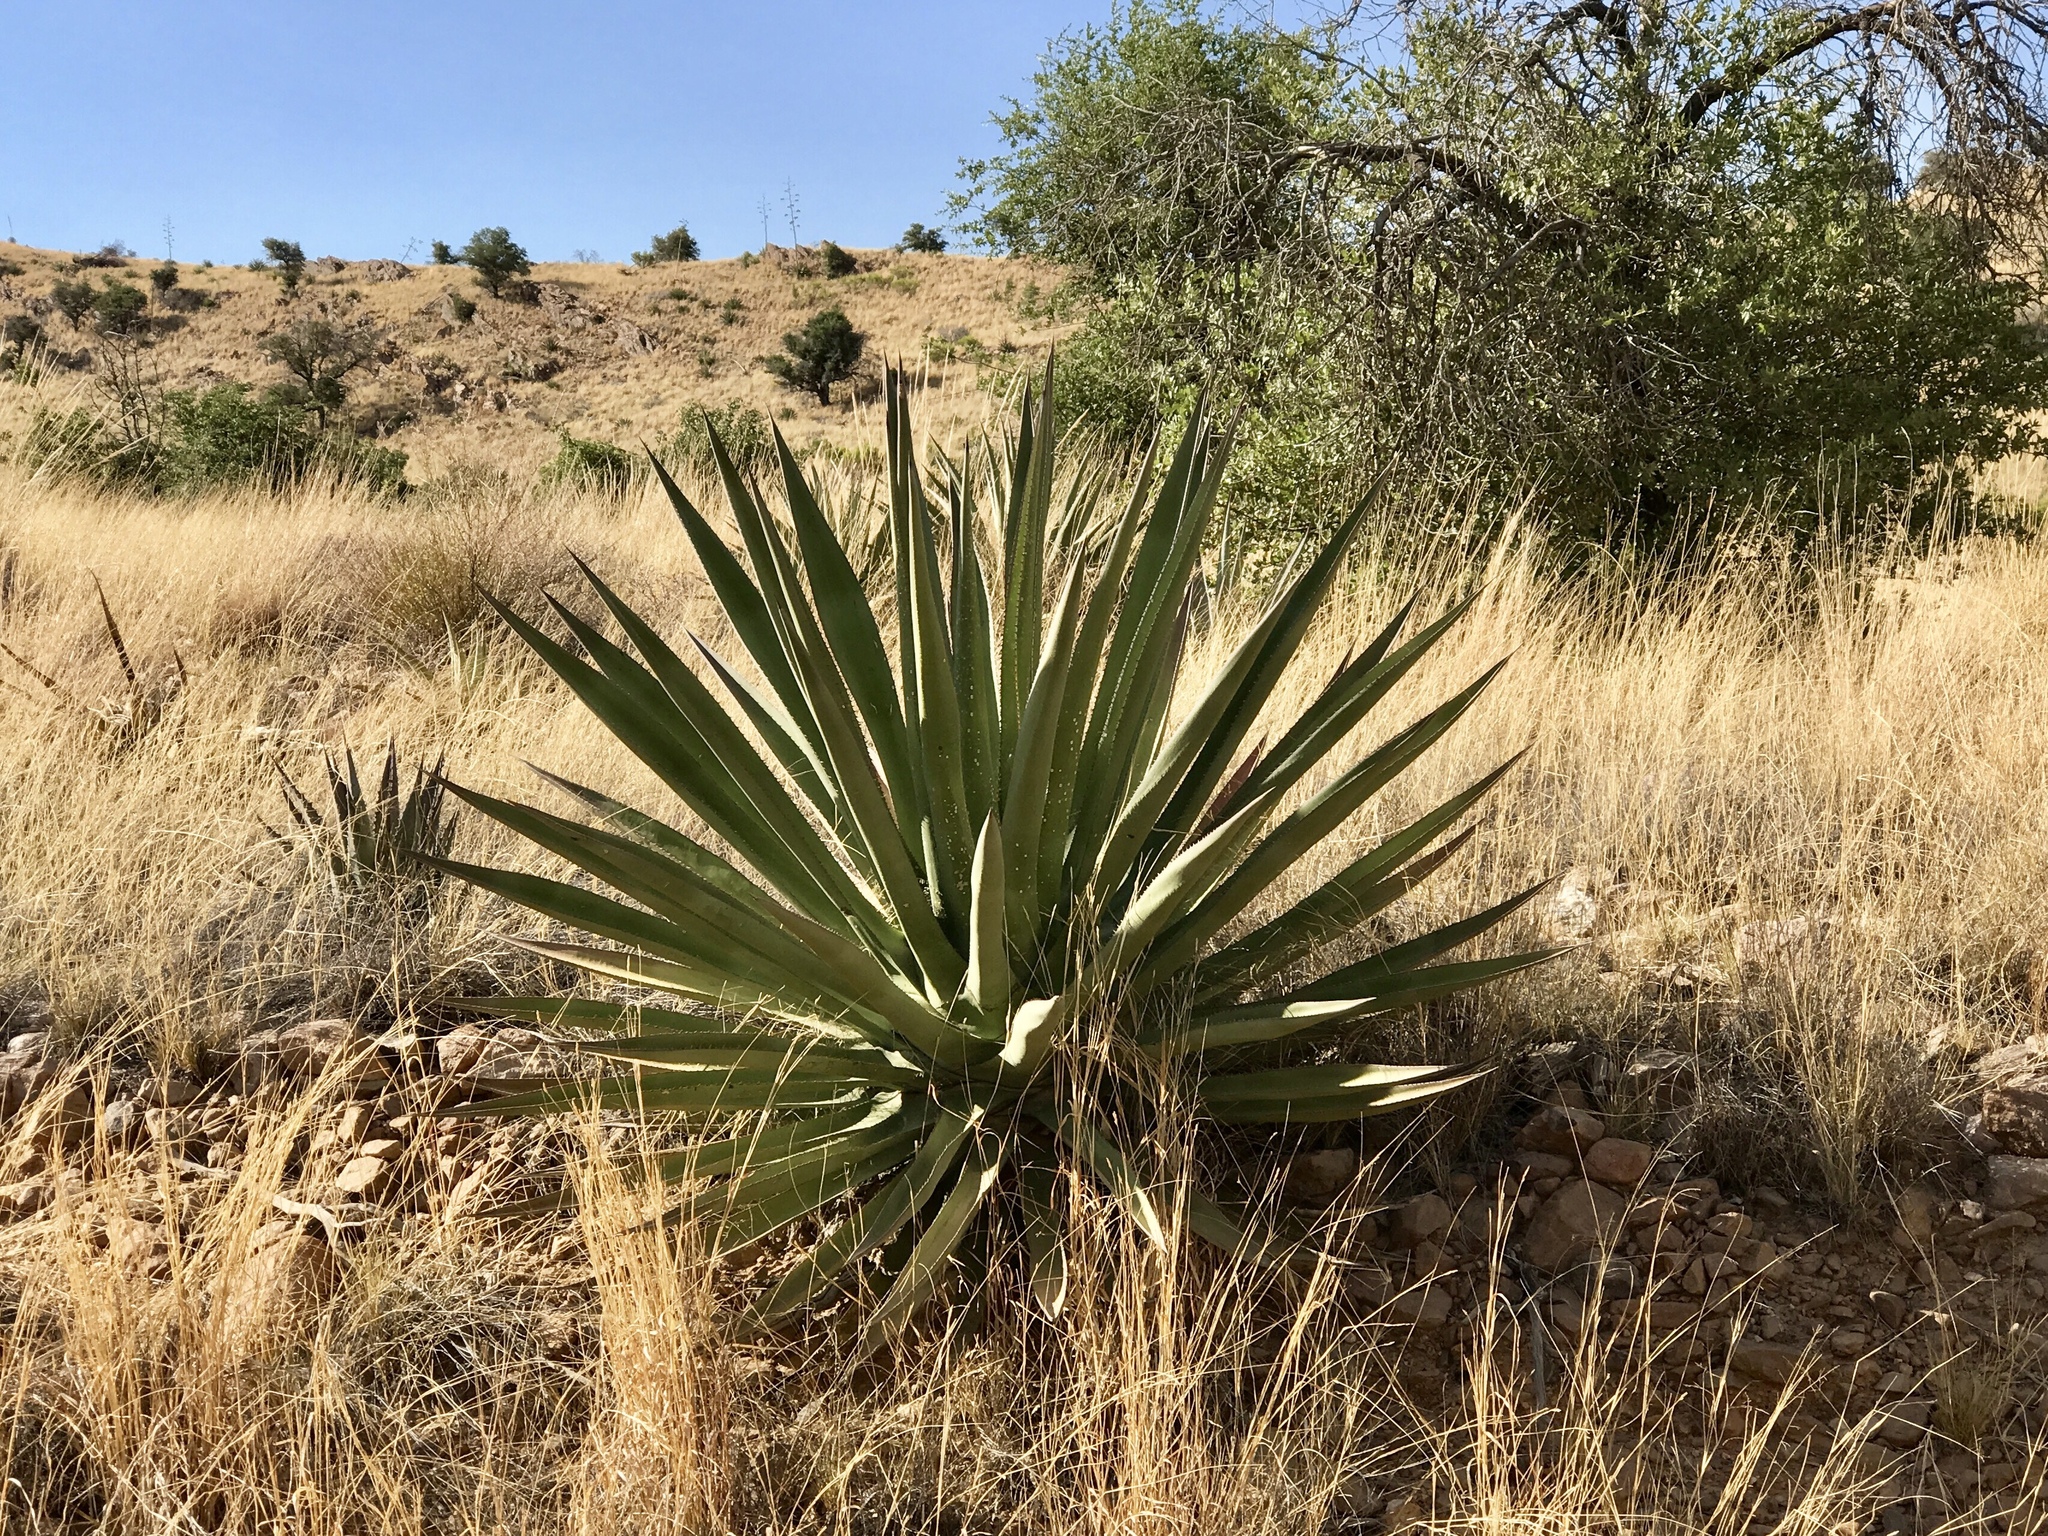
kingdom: Plantae
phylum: Tracheophyta
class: Liliopsida
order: Asparagales
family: Asparagaceae
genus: Agave
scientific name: Agave palmeri
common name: Palmer agave
